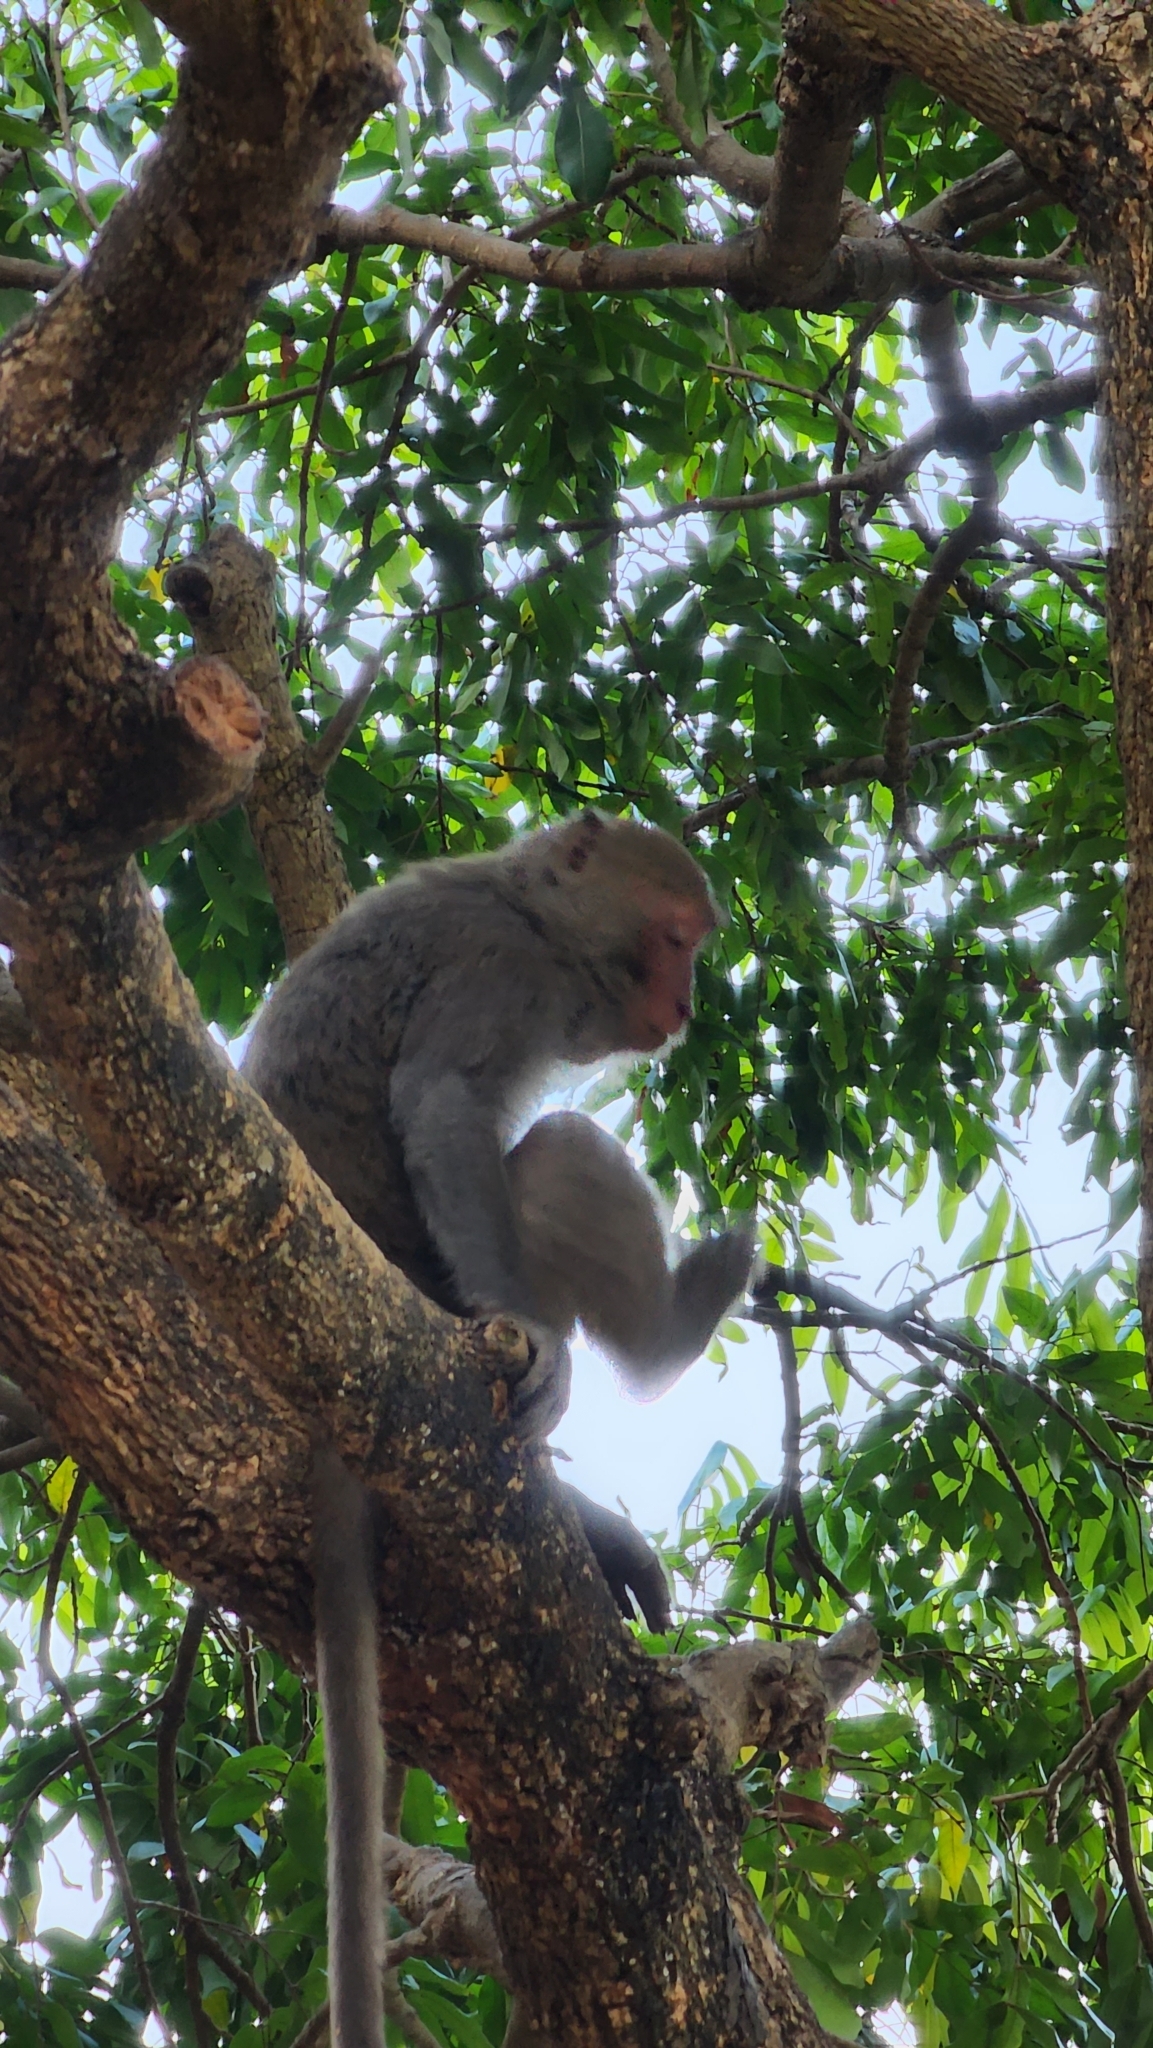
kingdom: Animalia
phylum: Chordata
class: Mammalia
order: Primates
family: Cercopithecidae
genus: Macaca
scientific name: Macaca cyclopis
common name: Formosan rock macaque
